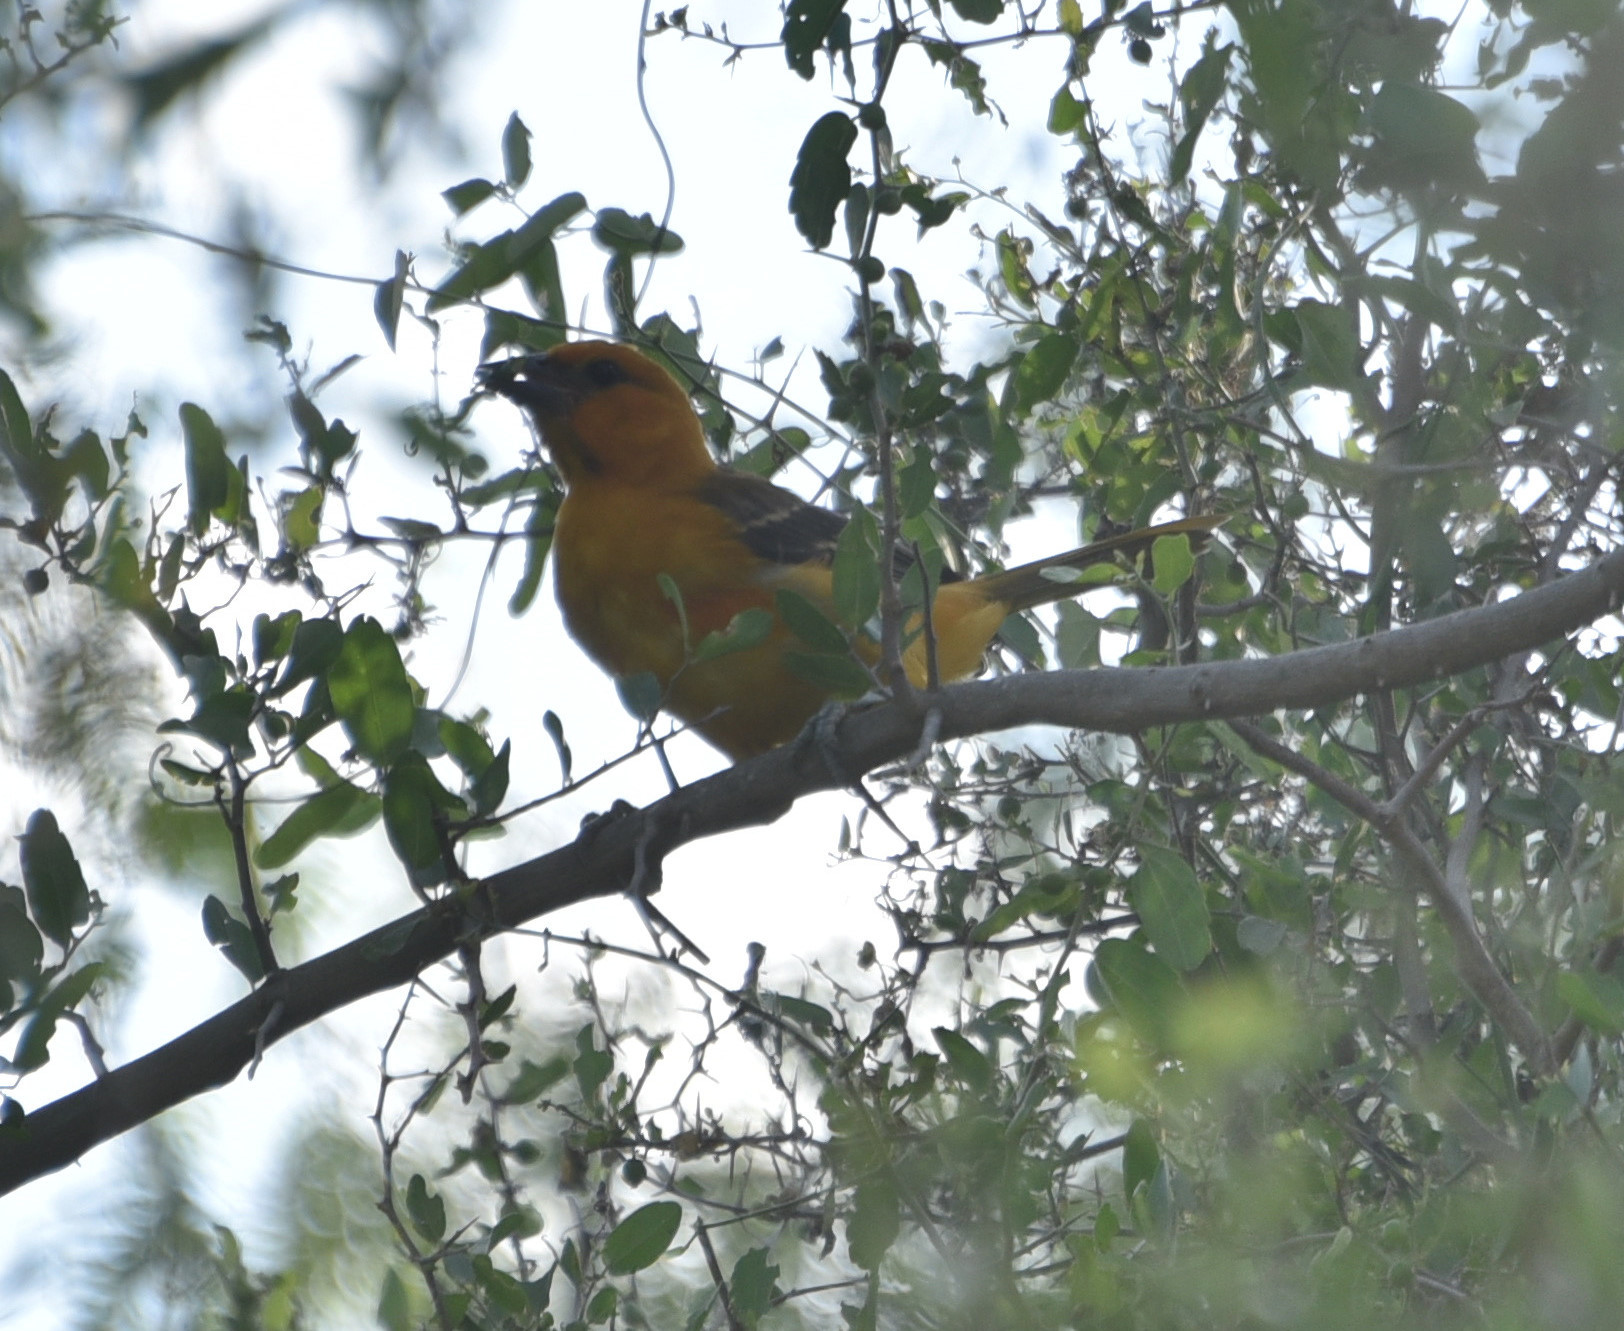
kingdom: Animalia
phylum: Chordata
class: Aves
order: Passeriformes
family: Icteridae
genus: Icterus
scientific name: Icterus gularis
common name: Altamira oriole
